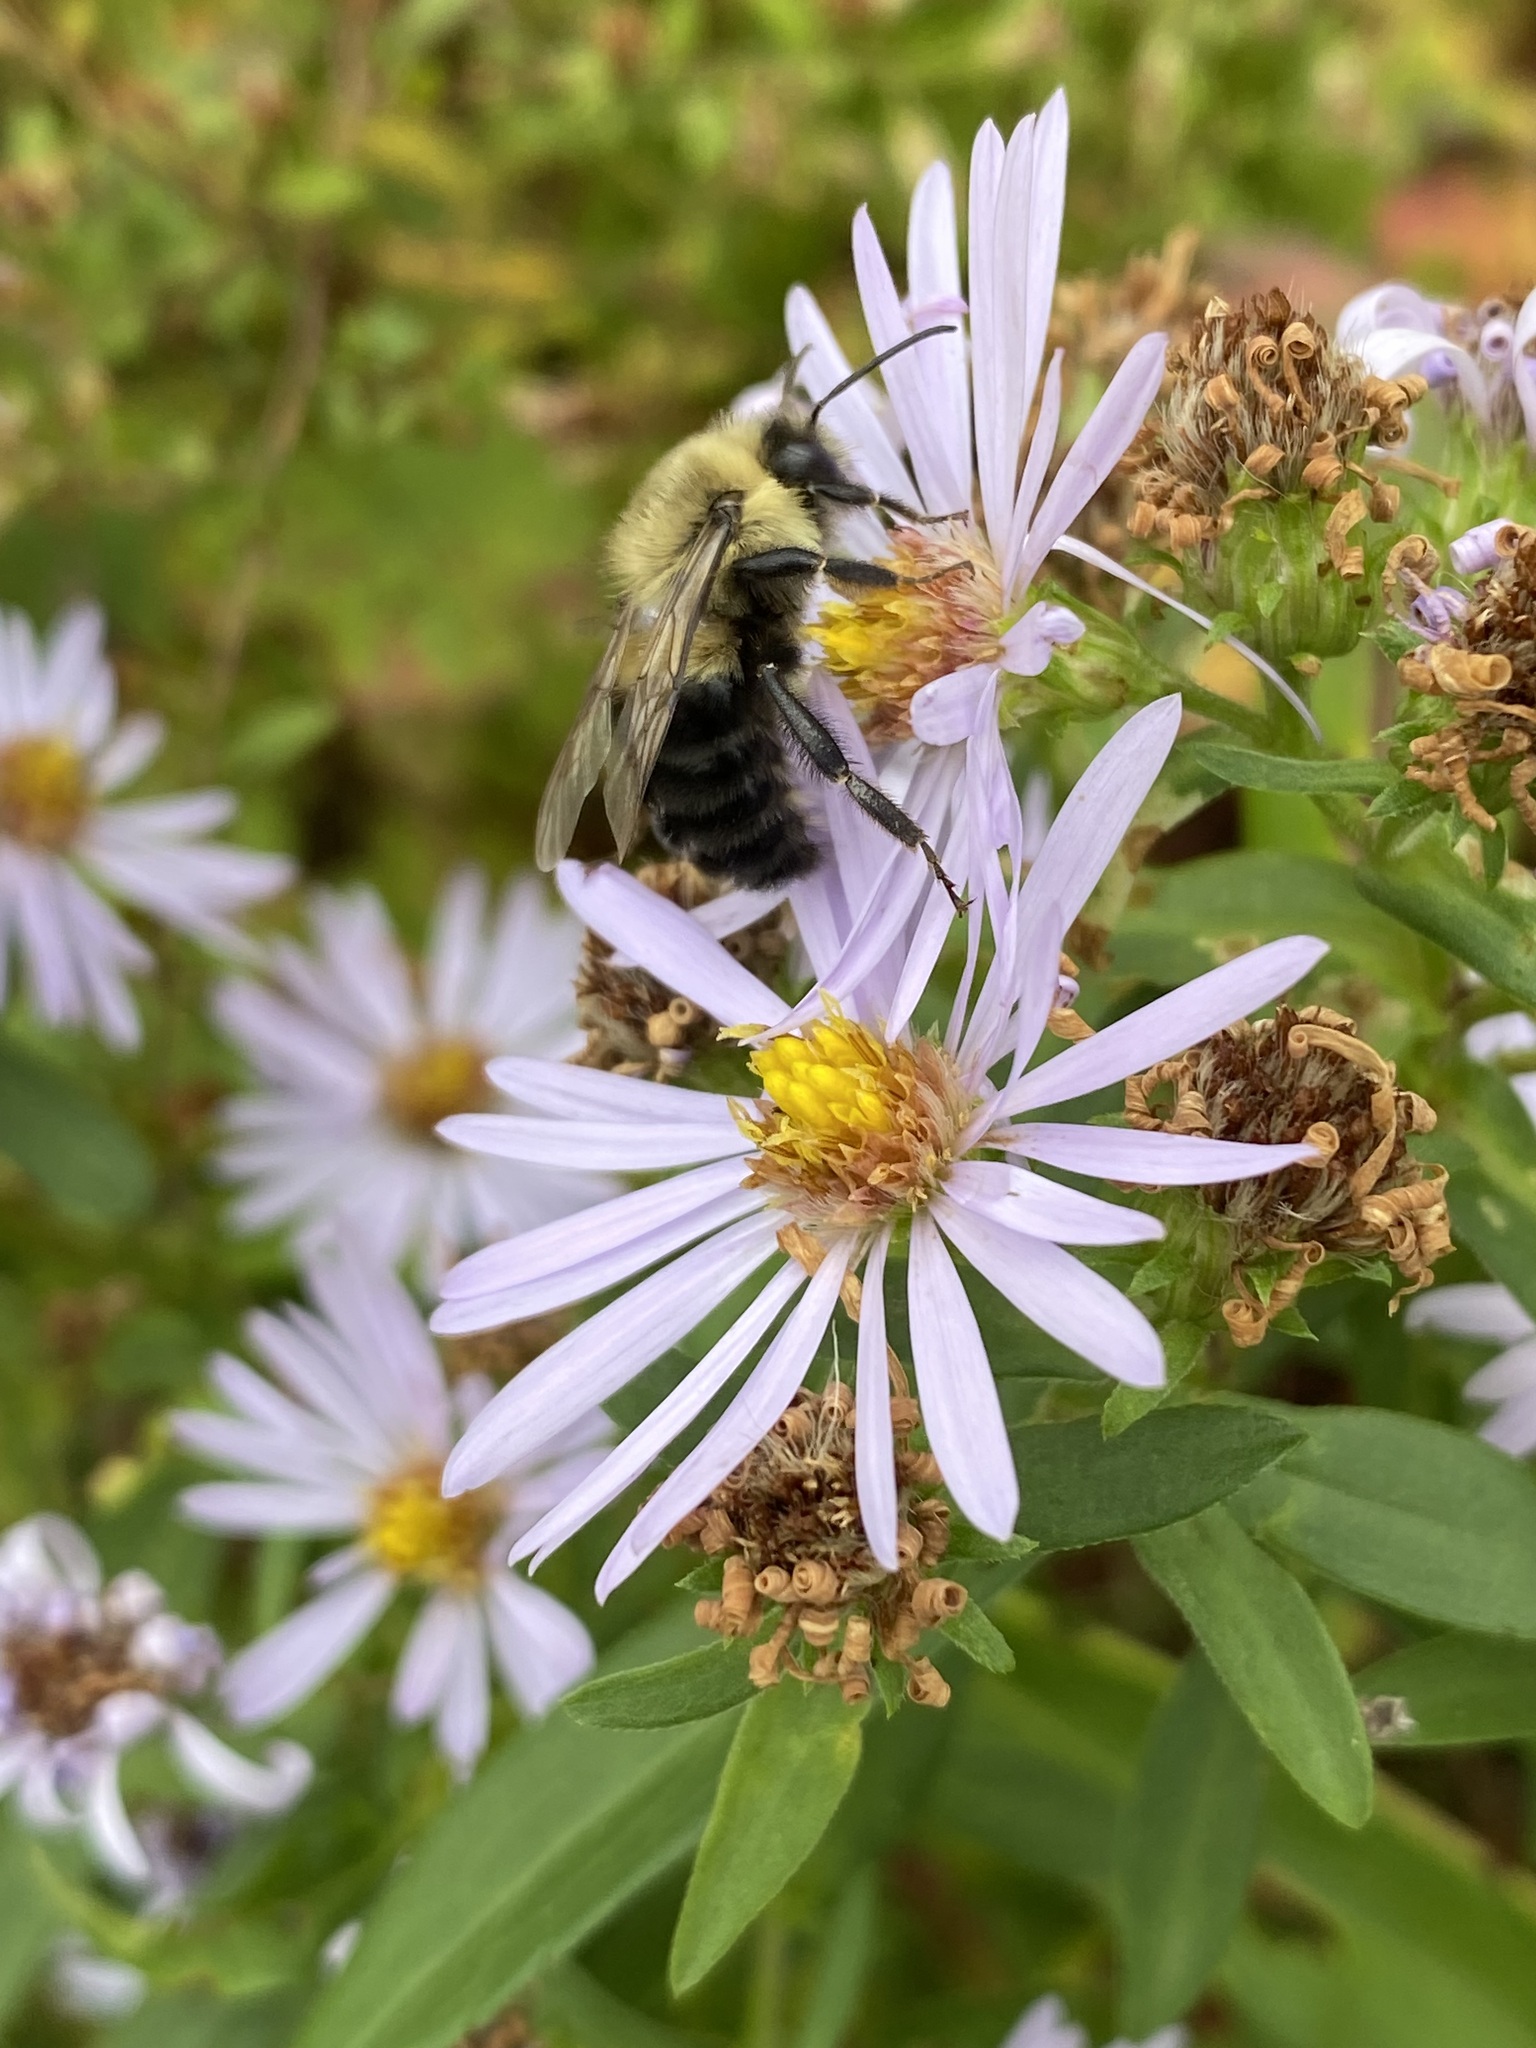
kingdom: Animalia
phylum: Arthropoda
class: Insecta
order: Hymenoptera
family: Apidae
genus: Bombus
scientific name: Bombus impatiens
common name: Common eastern bumble bee
